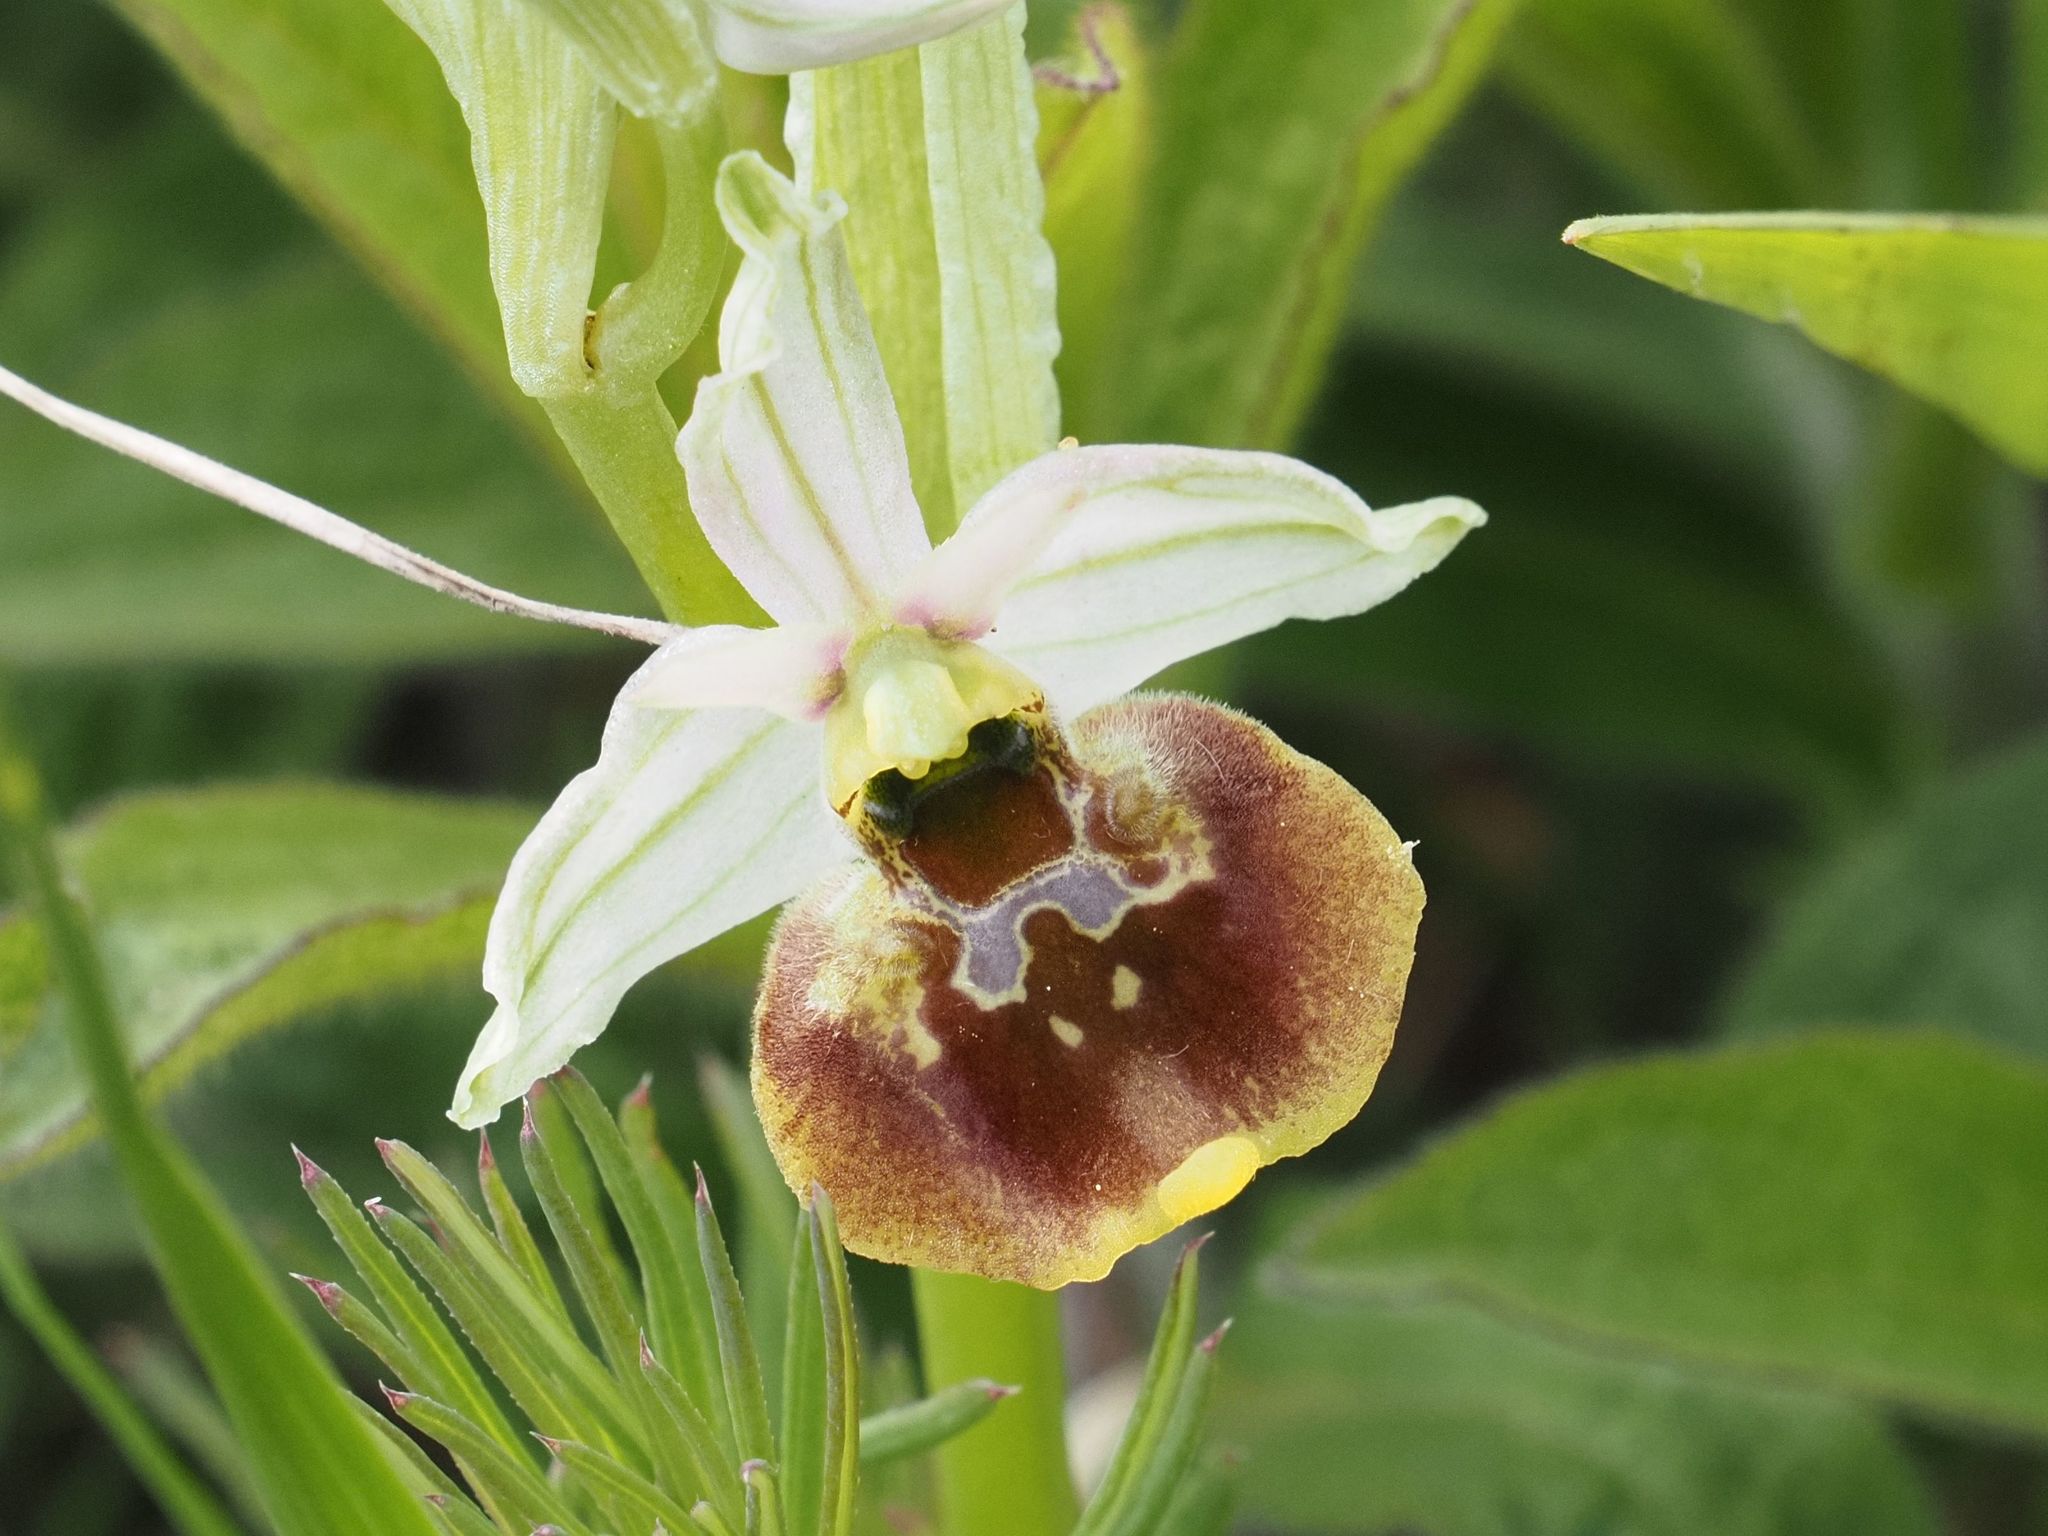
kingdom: Plantae
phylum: Tracheophyta
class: Liliopsida
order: Asparagales
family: Orchidaceae
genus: Ophrys
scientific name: Ophrys holosericea
